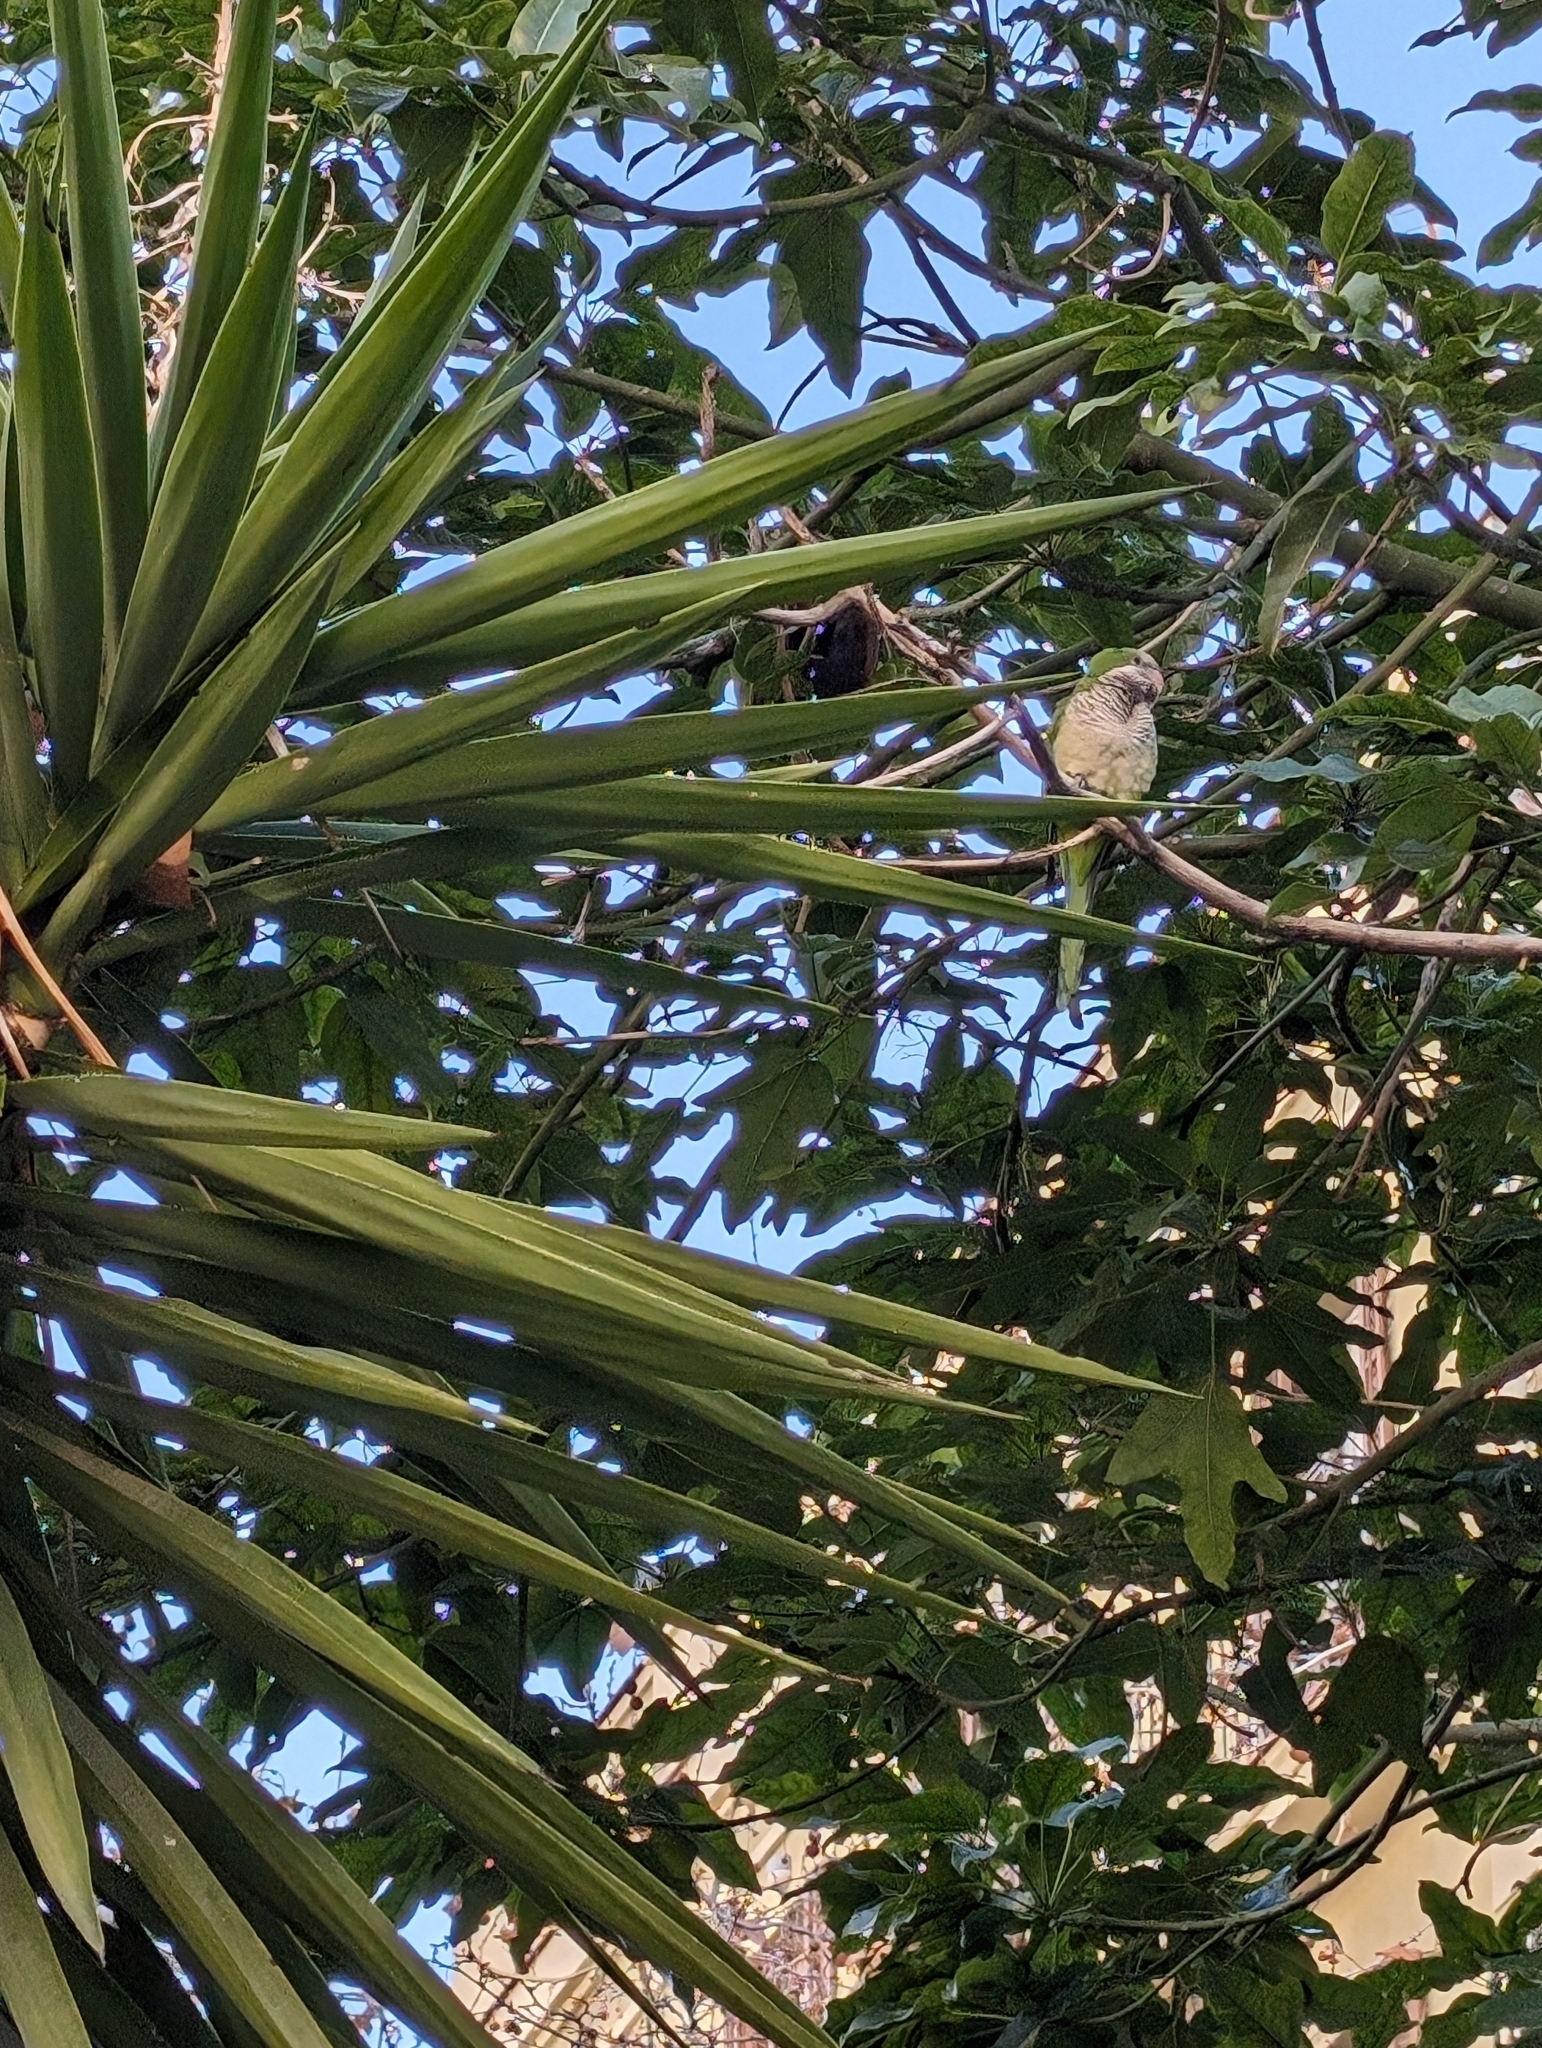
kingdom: Animalia
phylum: Chordata
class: Aves
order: Psittaciformes
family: Psittacidae
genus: Myiopsitta
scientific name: Myiopsitta monachus
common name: Monk parakeet
